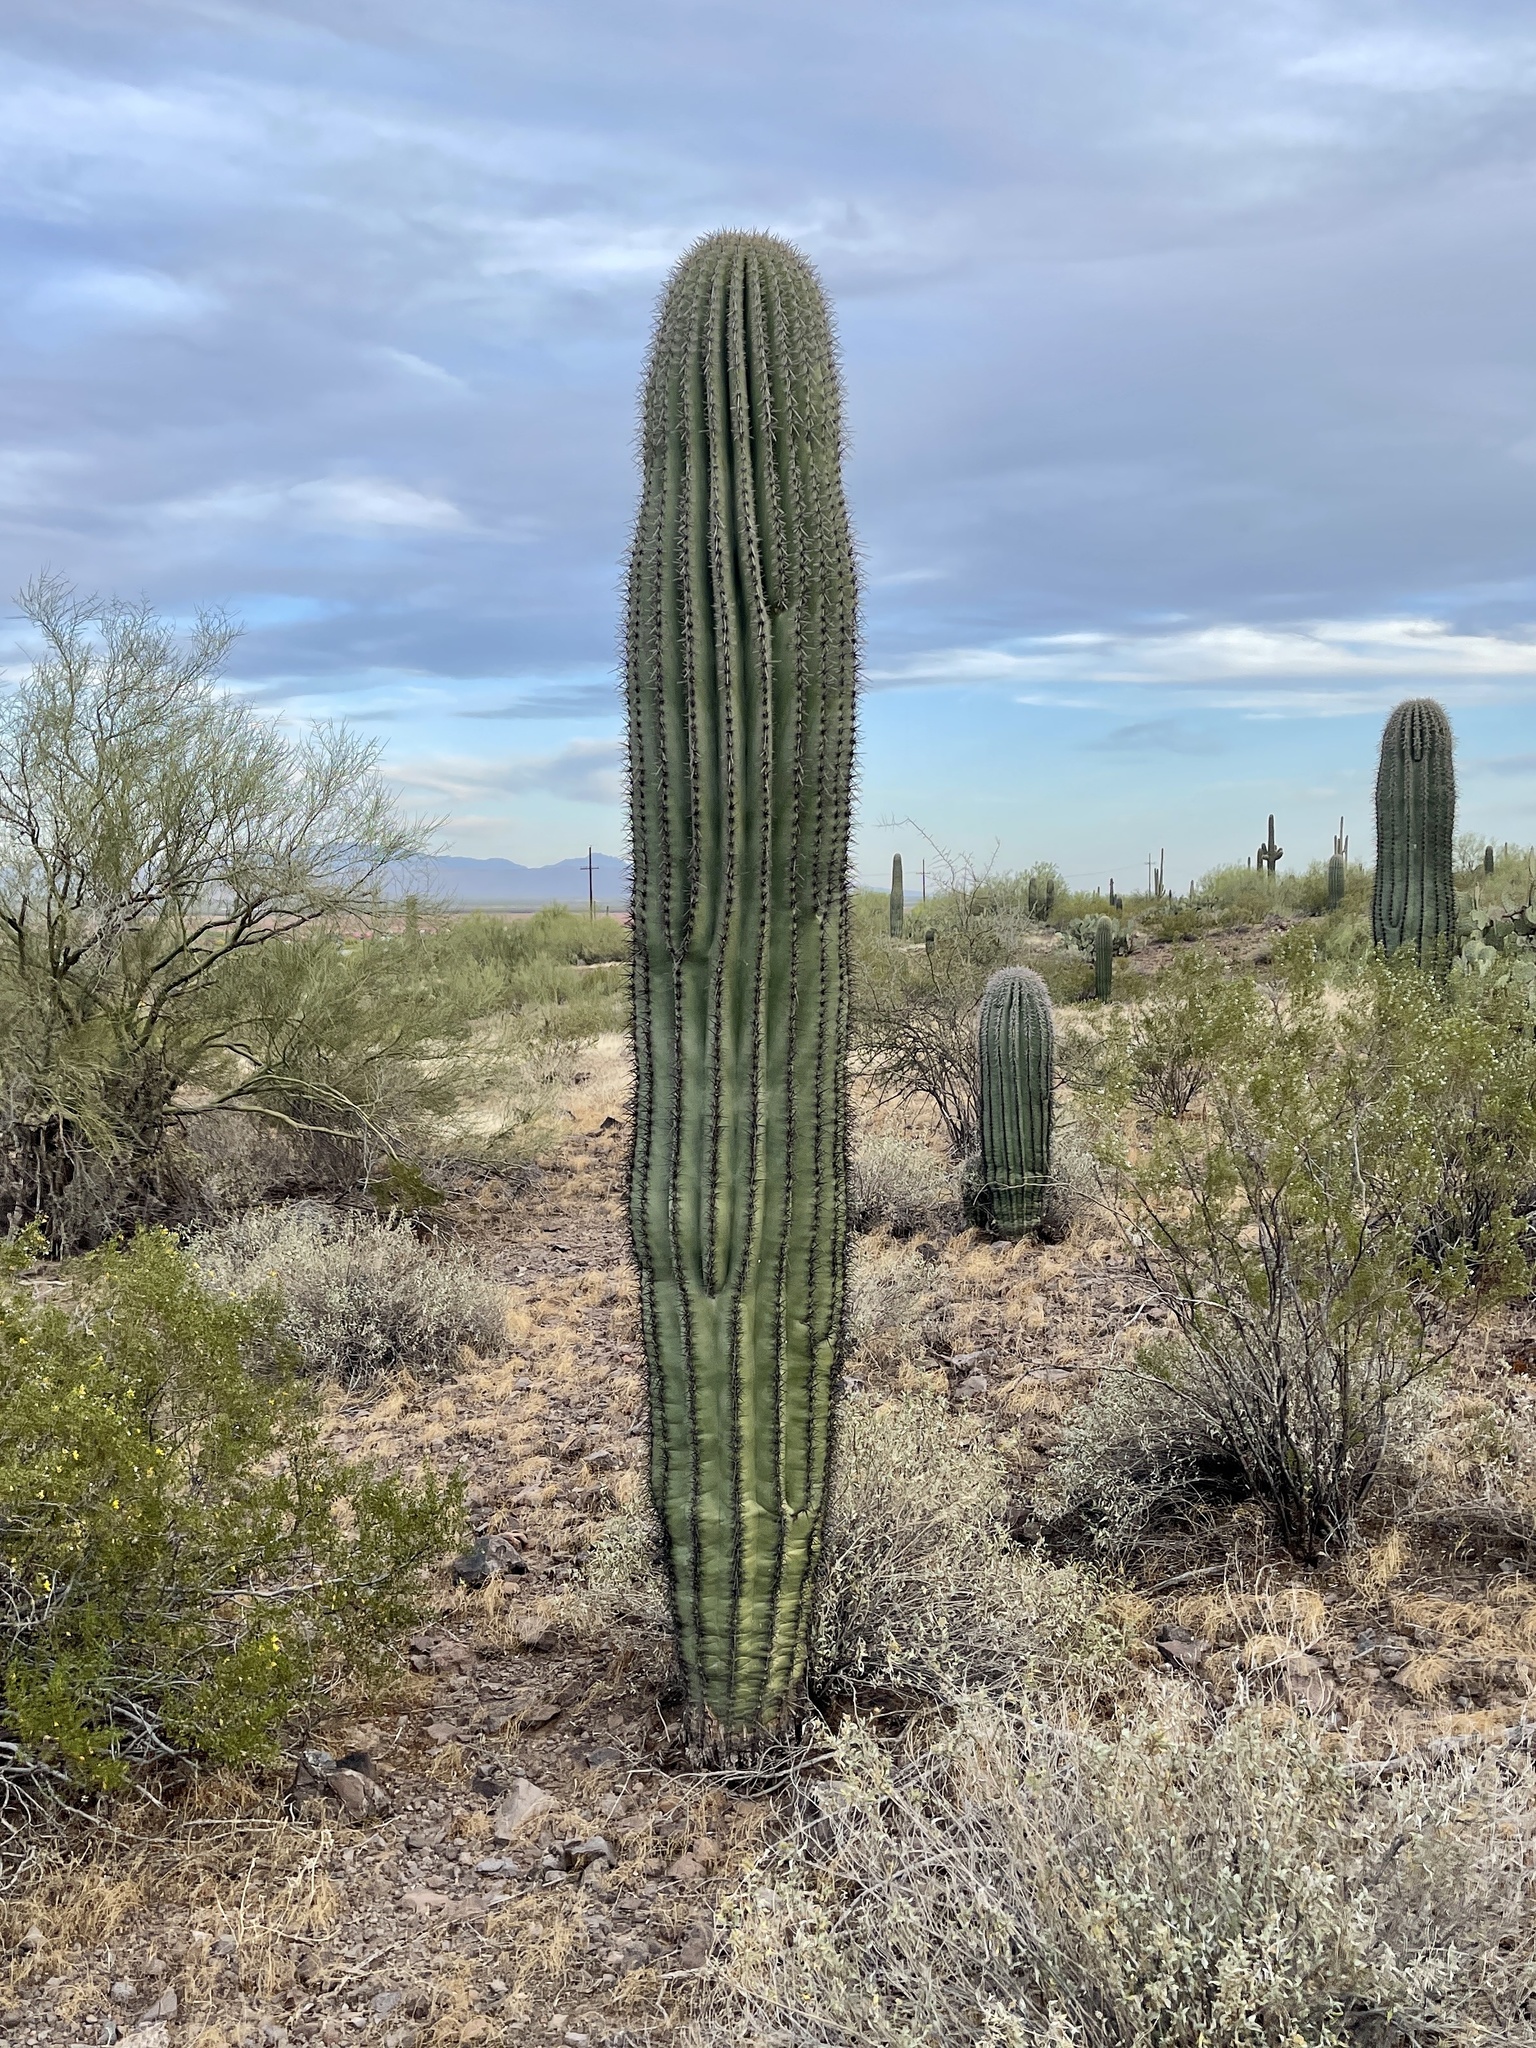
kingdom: Plantae
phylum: Tracheophyta
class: Magnoliopsida
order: Caryophyllales
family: Cactaceae
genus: Carnegiea
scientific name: Carnegiea gigantea
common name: Saguaro
